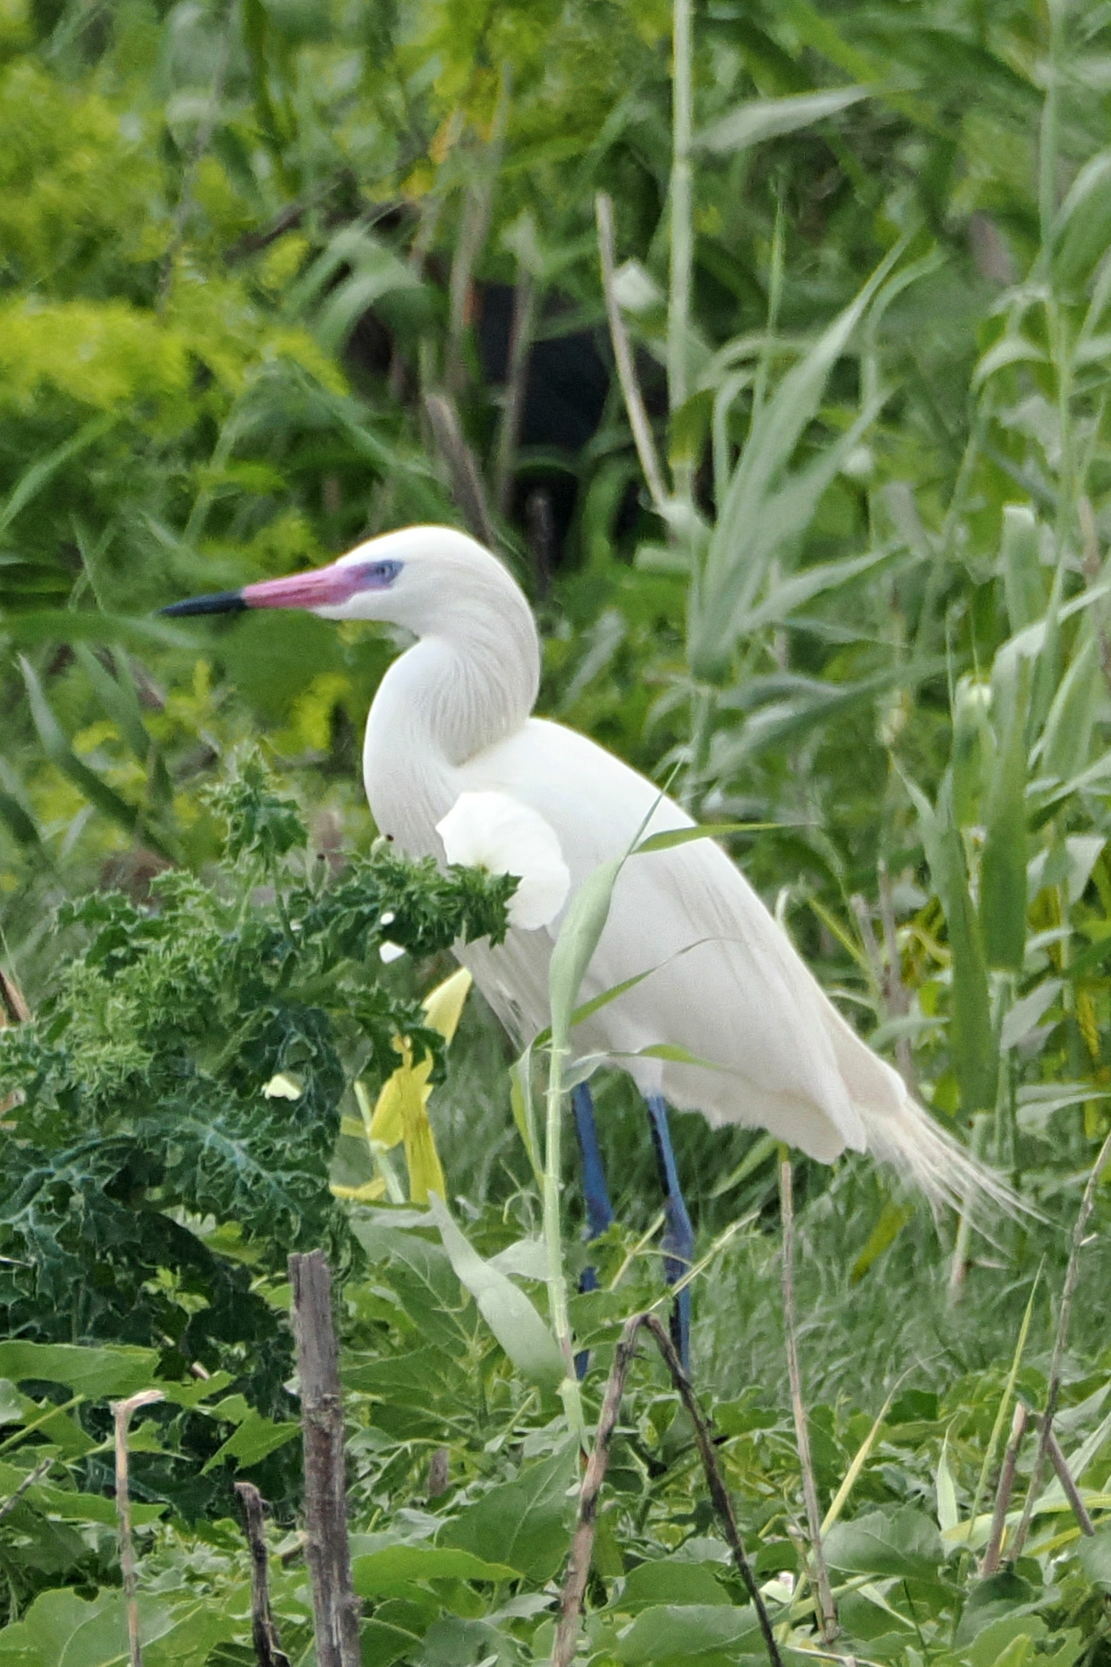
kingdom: Animalia
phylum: Chordata
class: Aves
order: Pelecaniformes
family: Ardeidae
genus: Egretta
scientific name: Egretta rufescens
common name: Reddish egret
